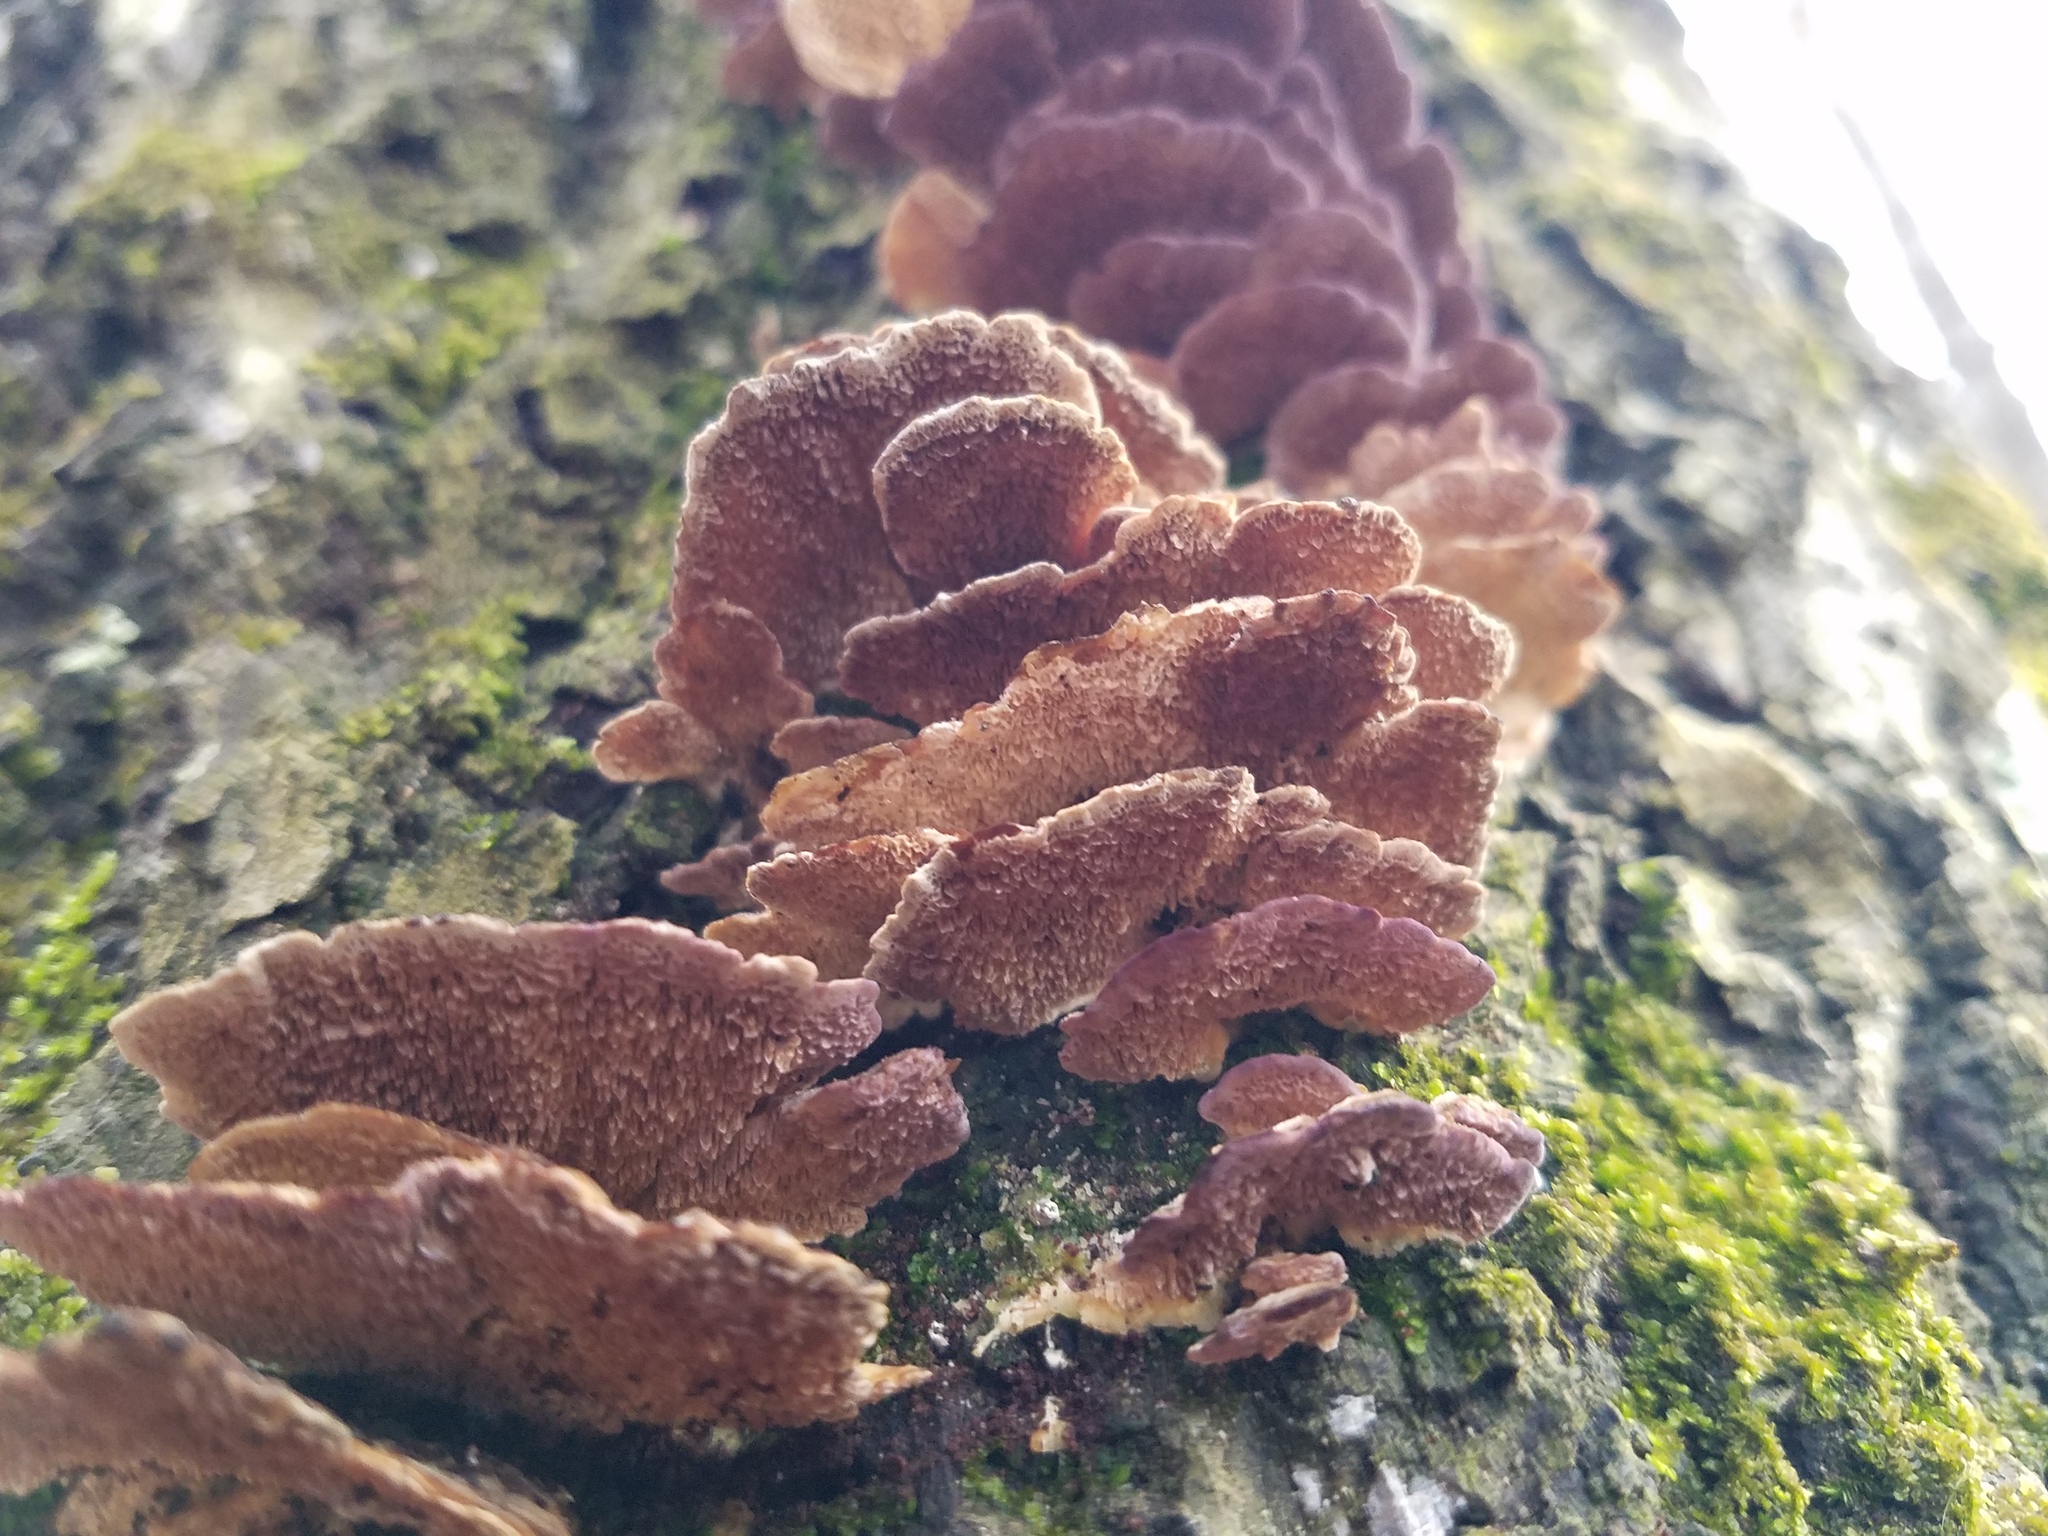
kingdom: Fungi
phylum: Basidiomycota
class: Agaricomycetes
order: Hymenochaetales
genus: Trichaptum
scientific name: Trichaptum biforme
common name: Violet-toothed polypore
